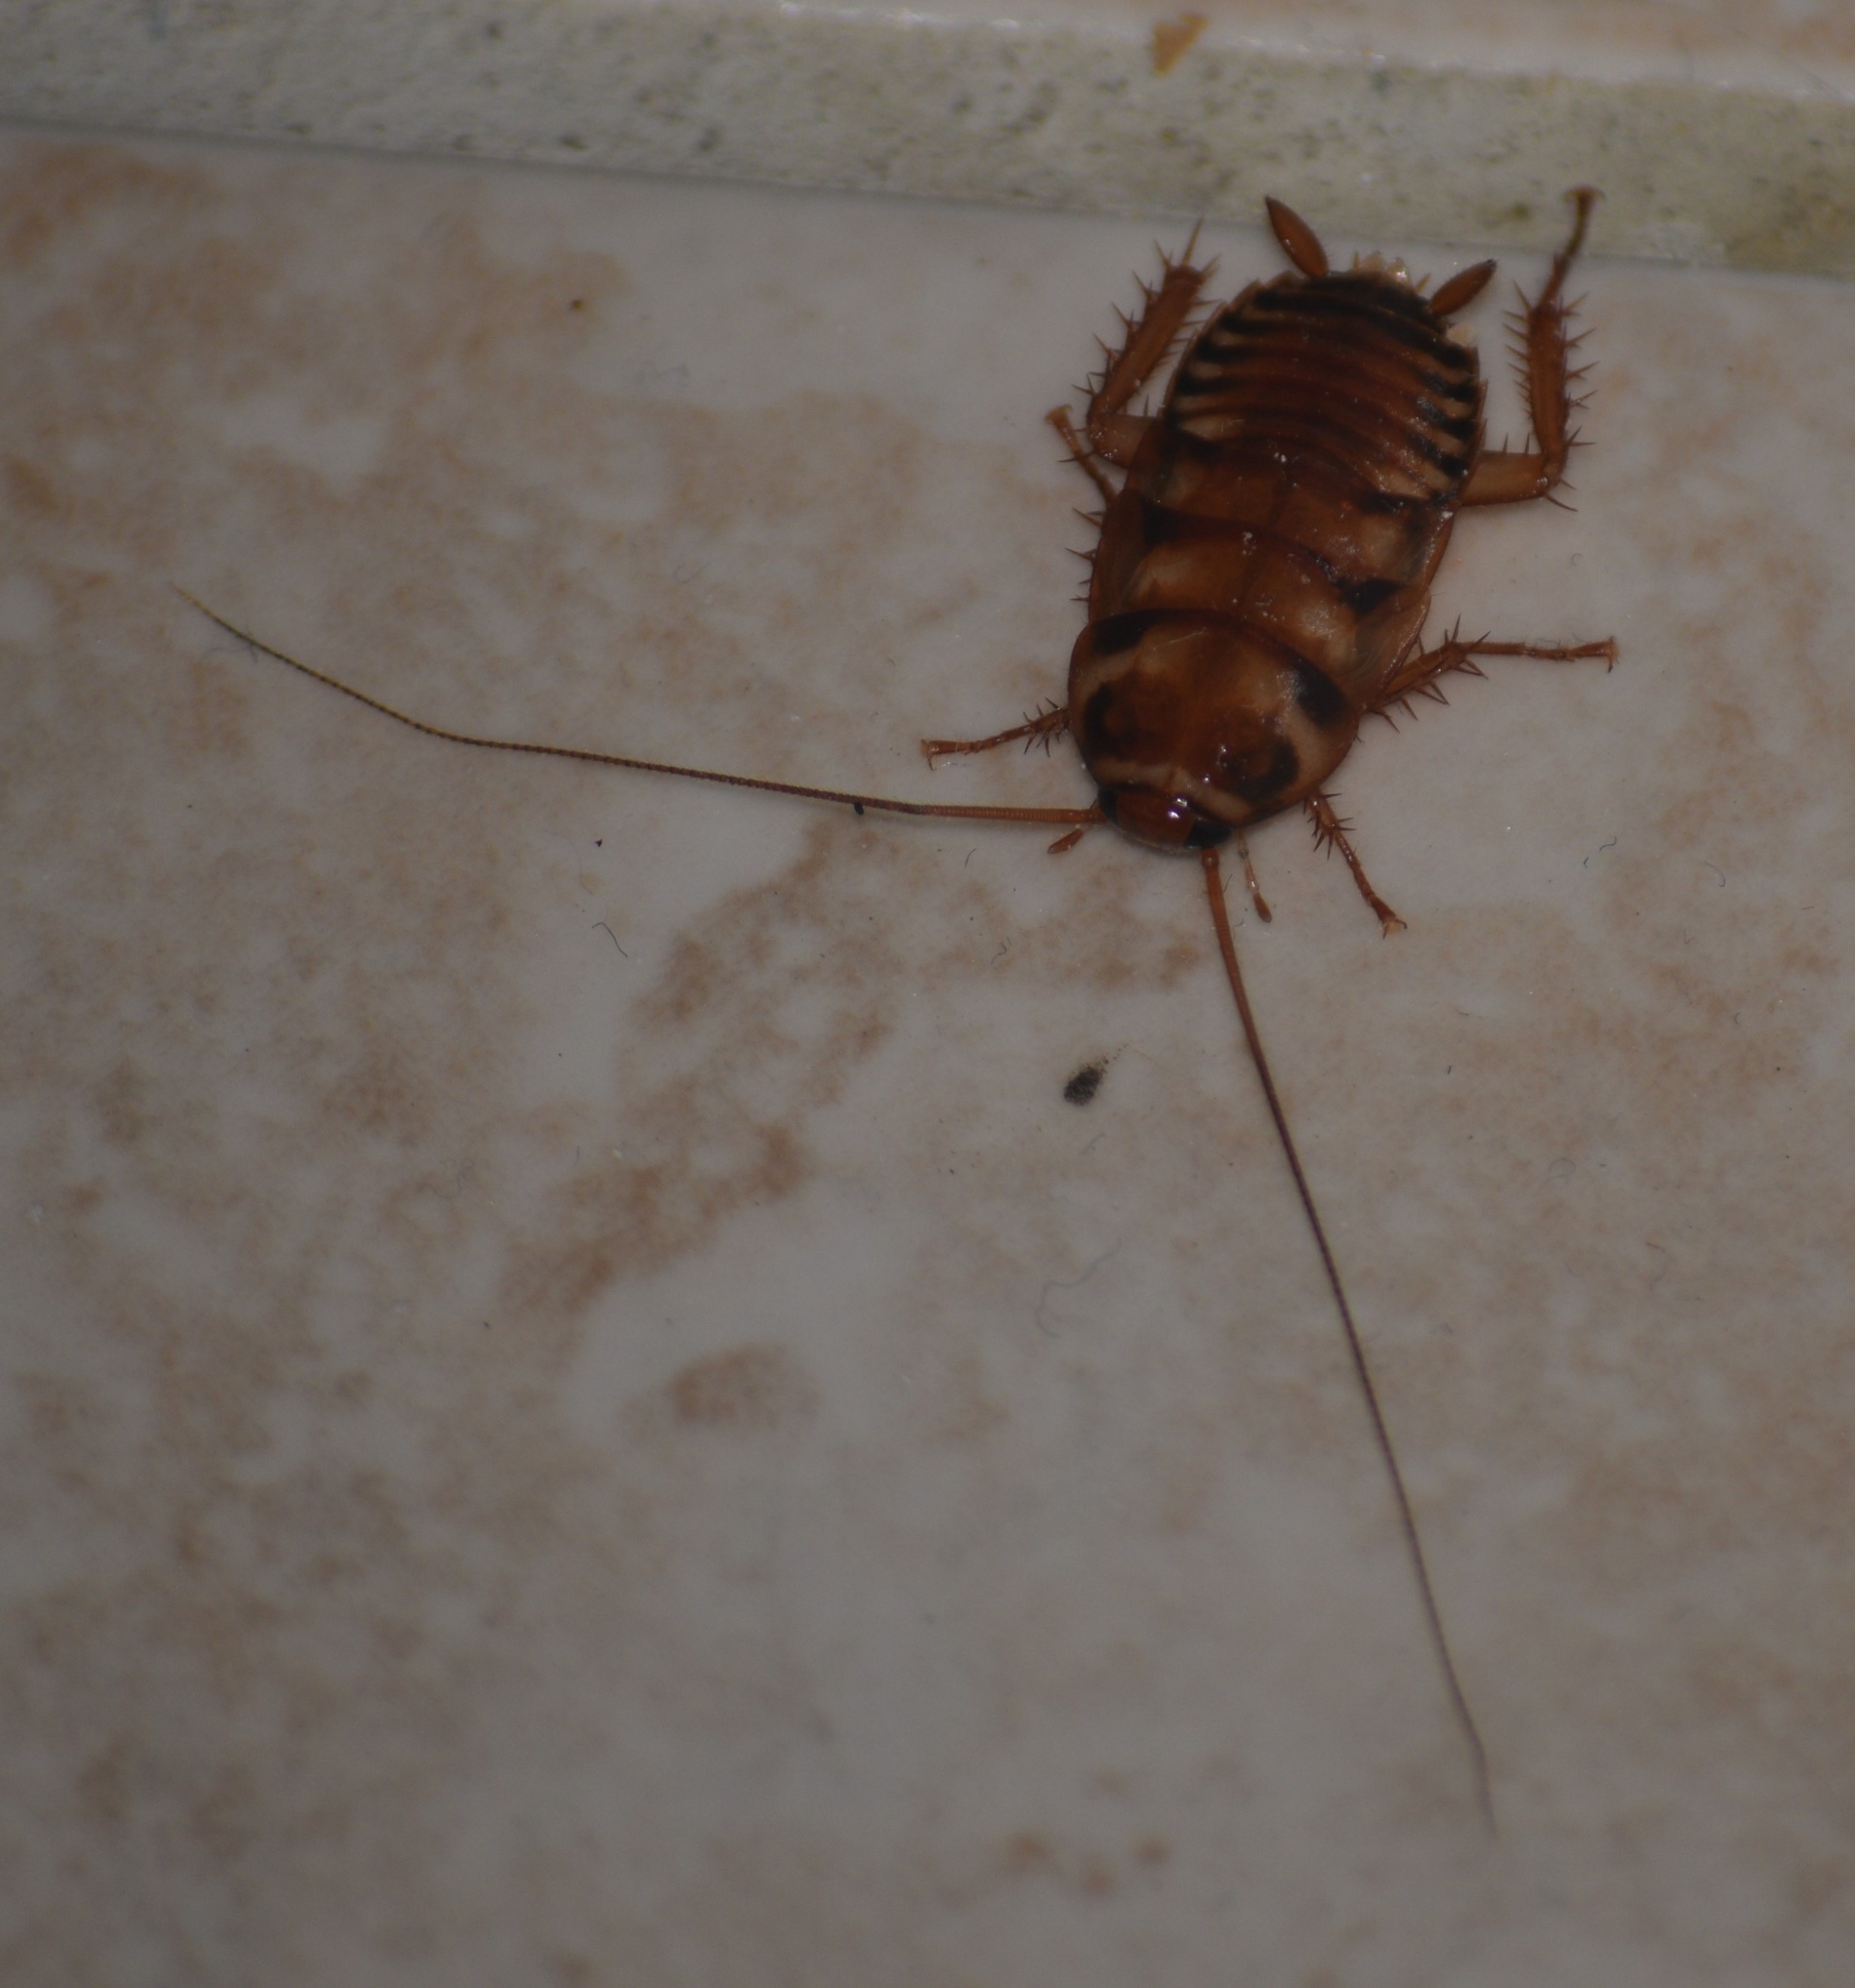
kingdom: Animalia
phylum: Arthropoda
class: Insecta
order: Blattodea
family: Blattidae
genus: Periplaneta
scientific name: Periplaneta australasiae
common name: Australian cockroach
